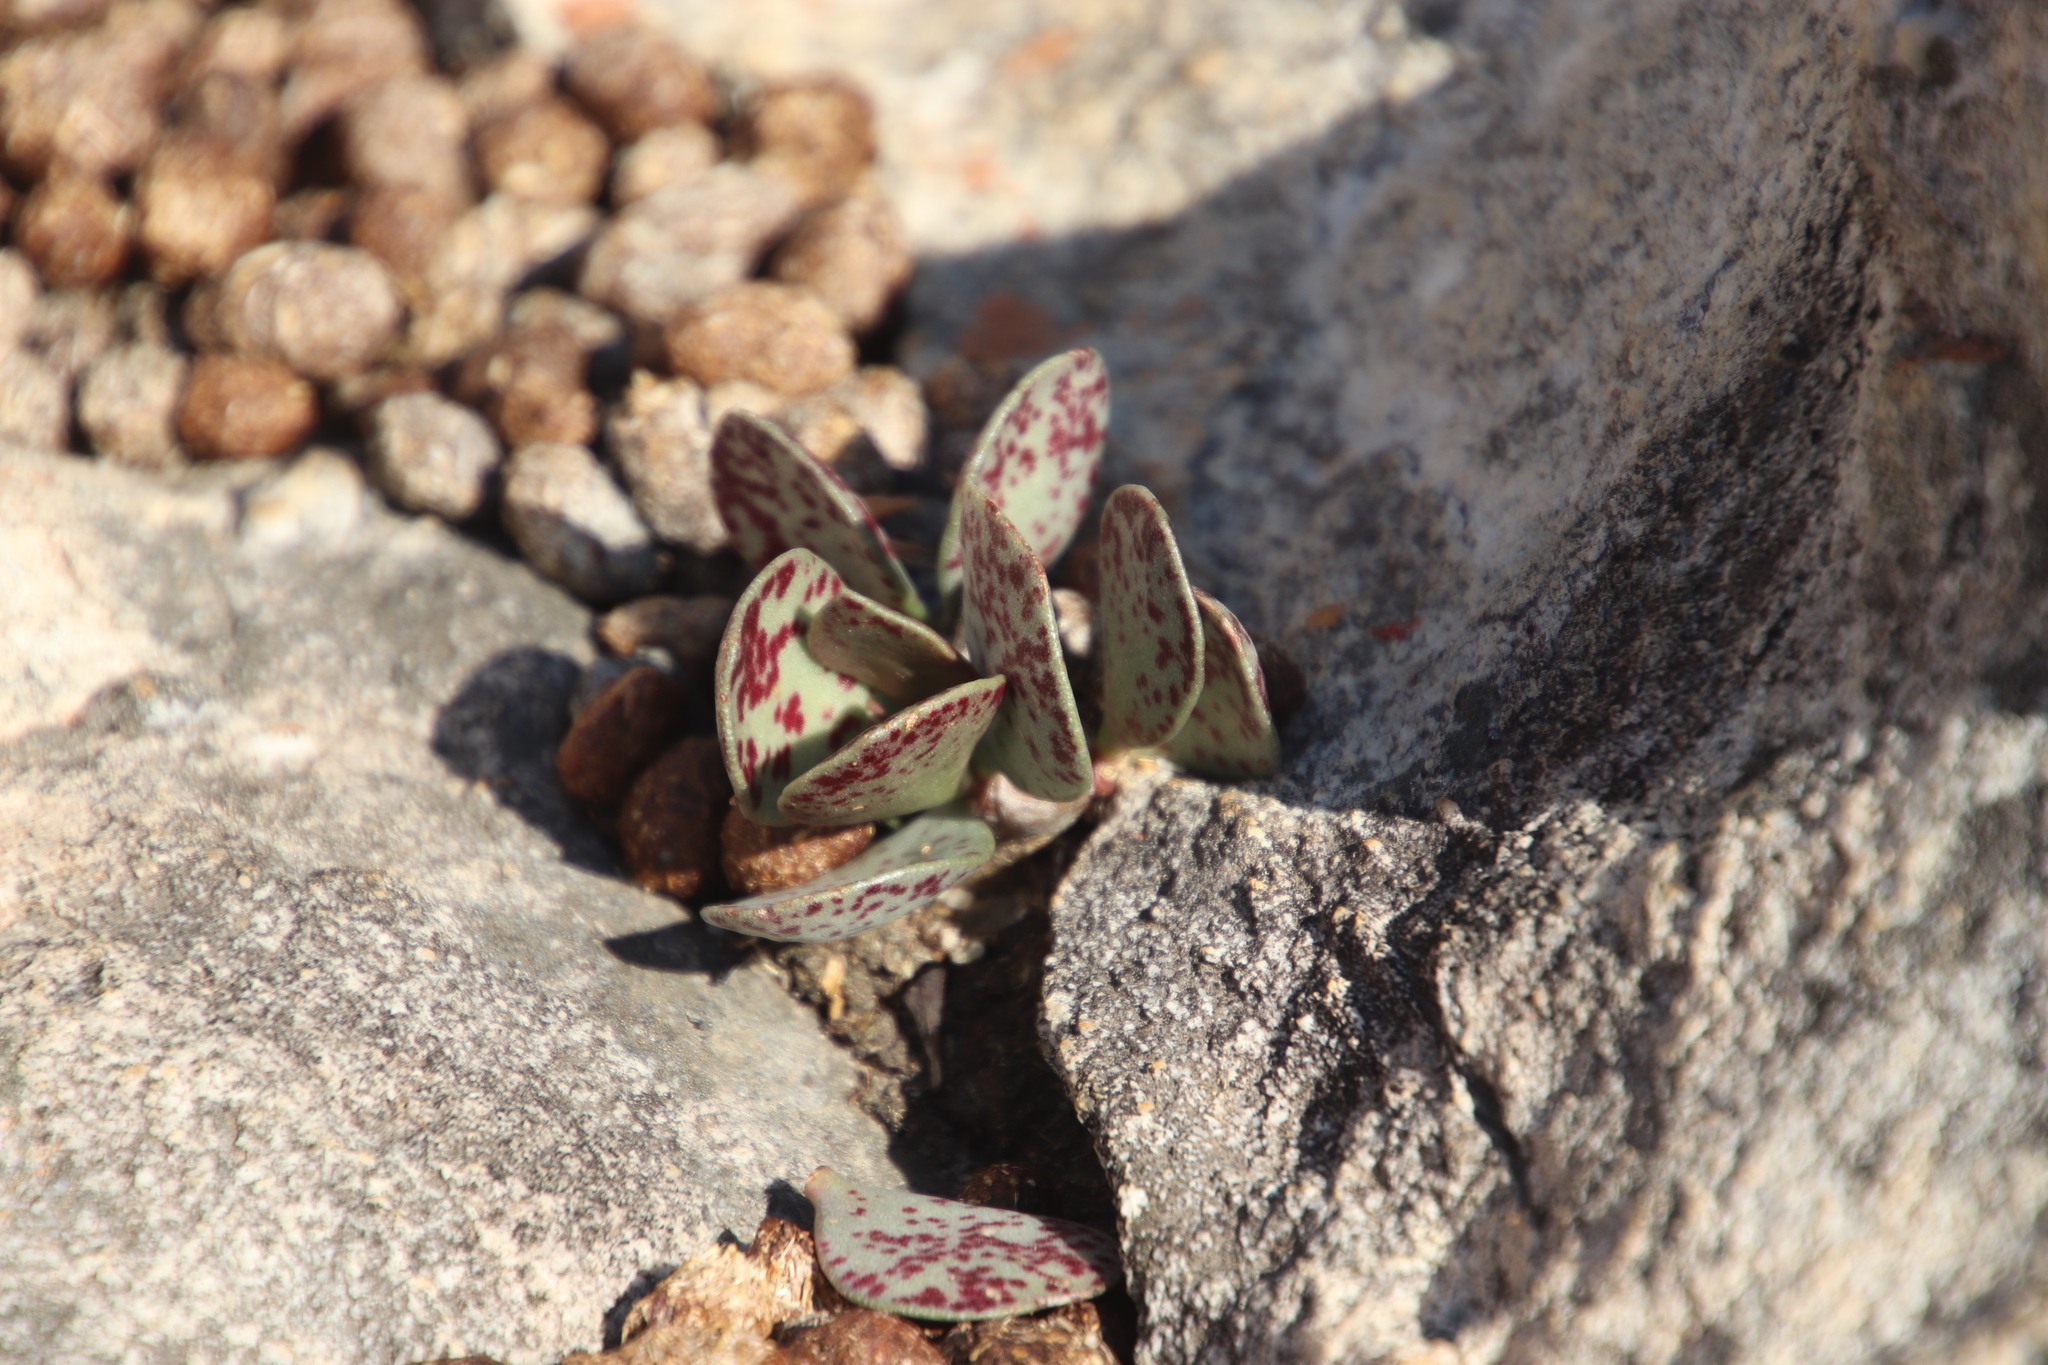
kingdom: Plantae
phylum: Tracheophyta
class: Magnoliopsida
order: Saxifragales
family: Crassulaceae
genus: Adromischus
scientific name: Adromischus hemisphaericus
